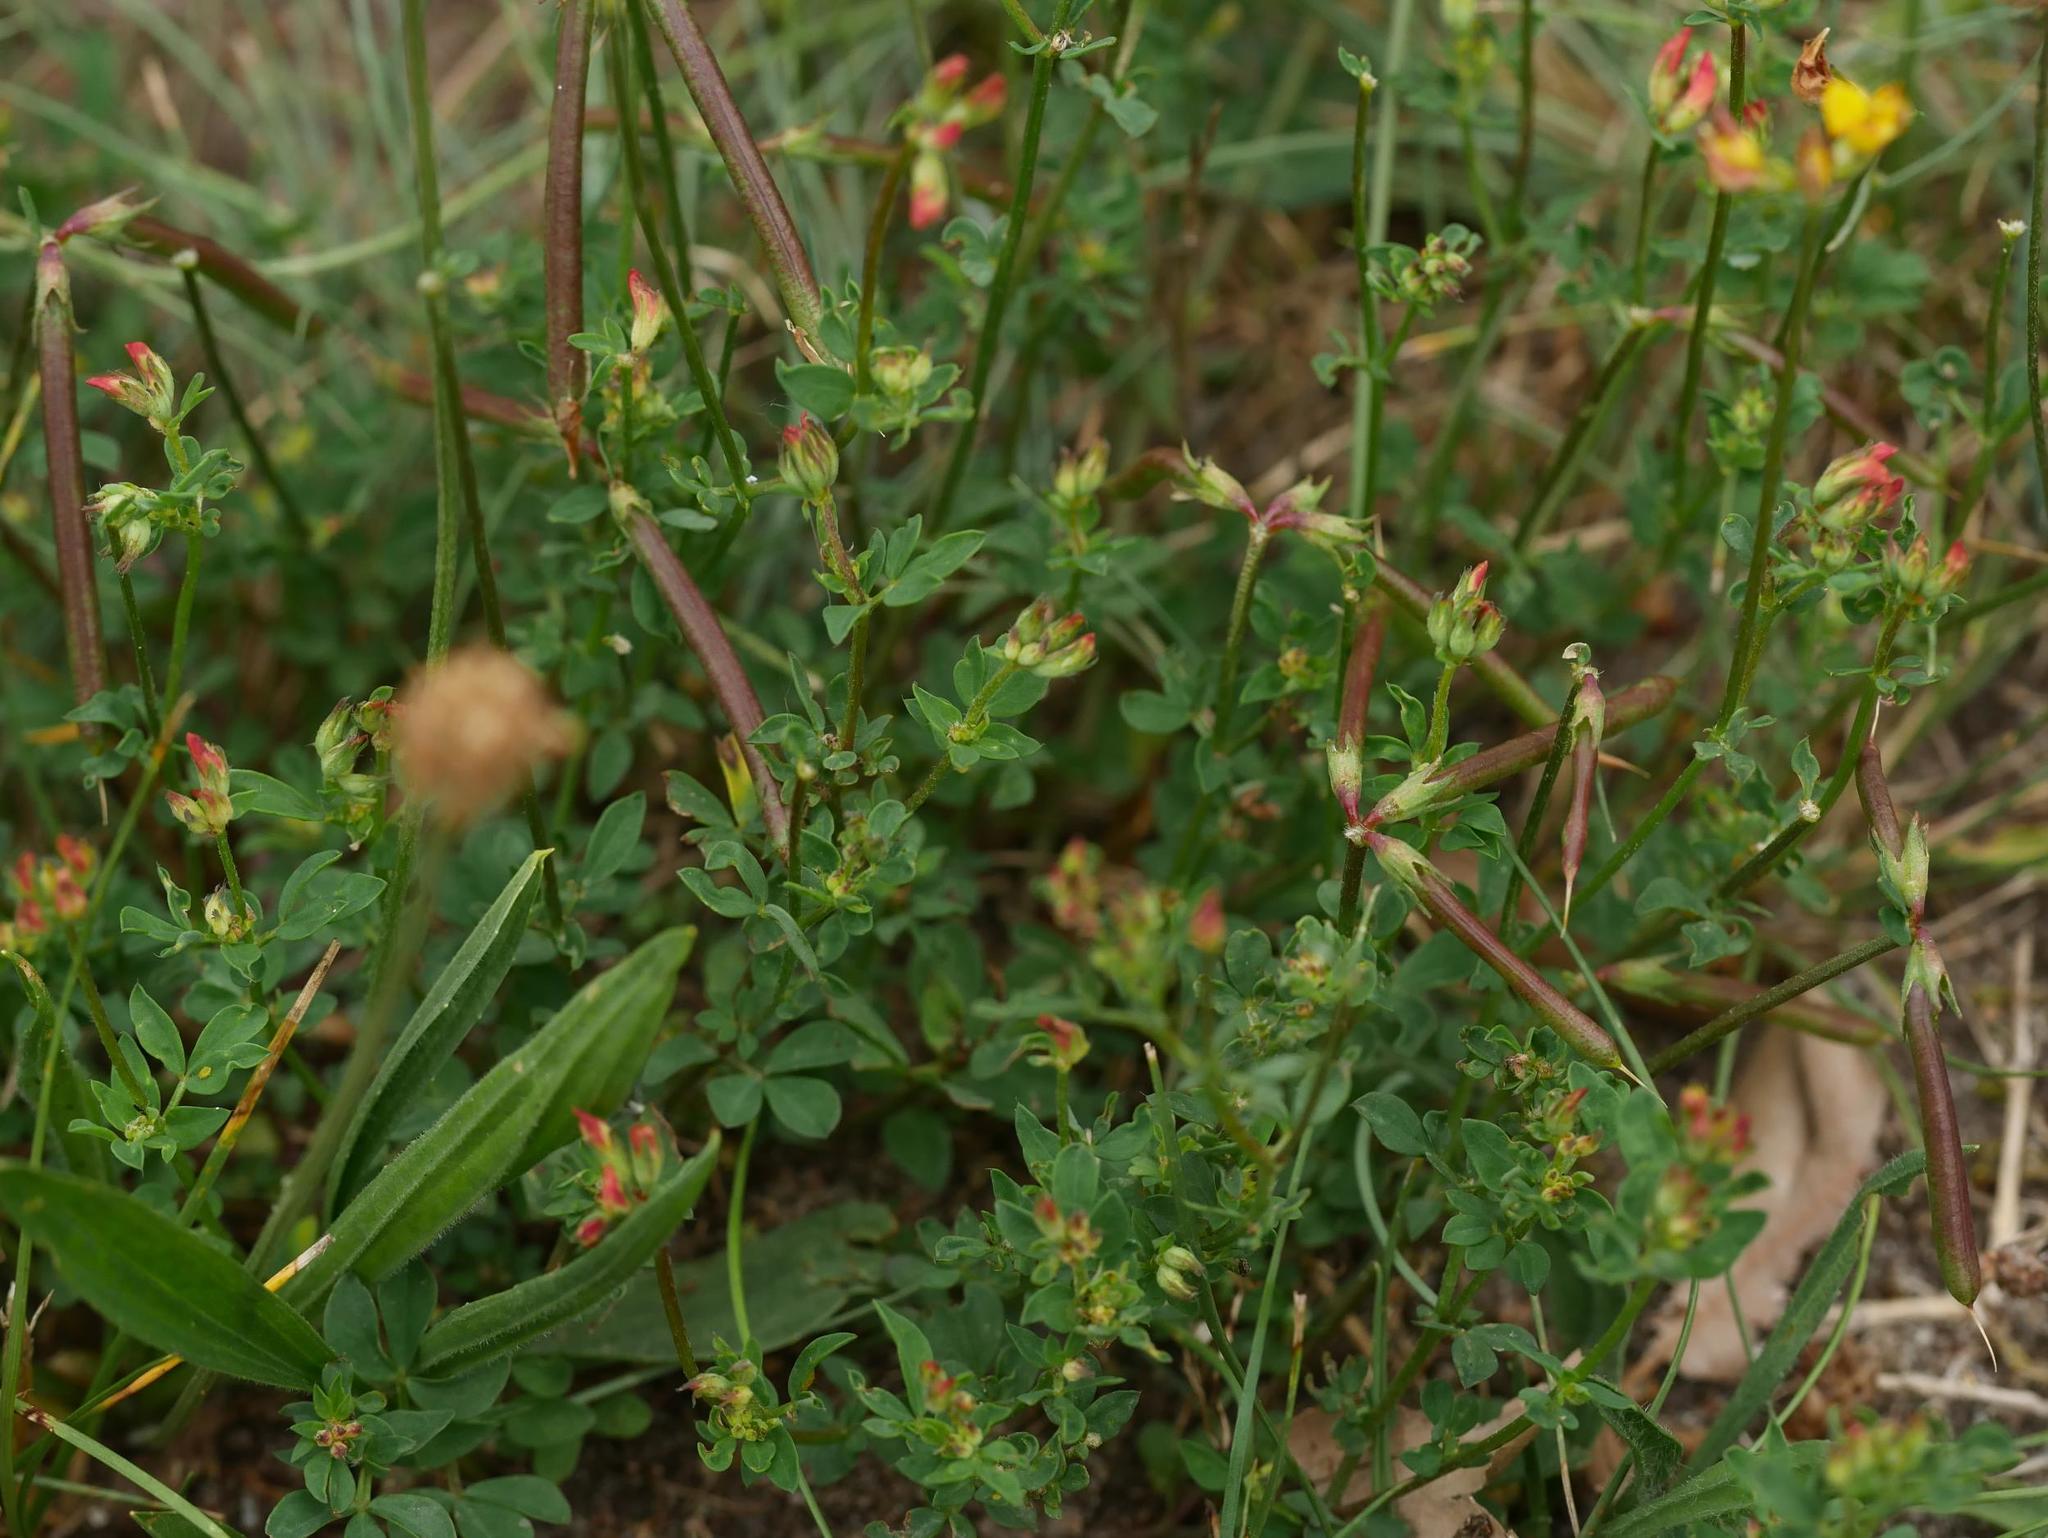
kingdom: Plantae
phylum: Tracheophyta
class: Magnoliopsida
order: Fabales
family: Fabaceae
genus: Lotus
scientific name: Lotus corniculatus
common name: Common bird's-foot-trefoil
